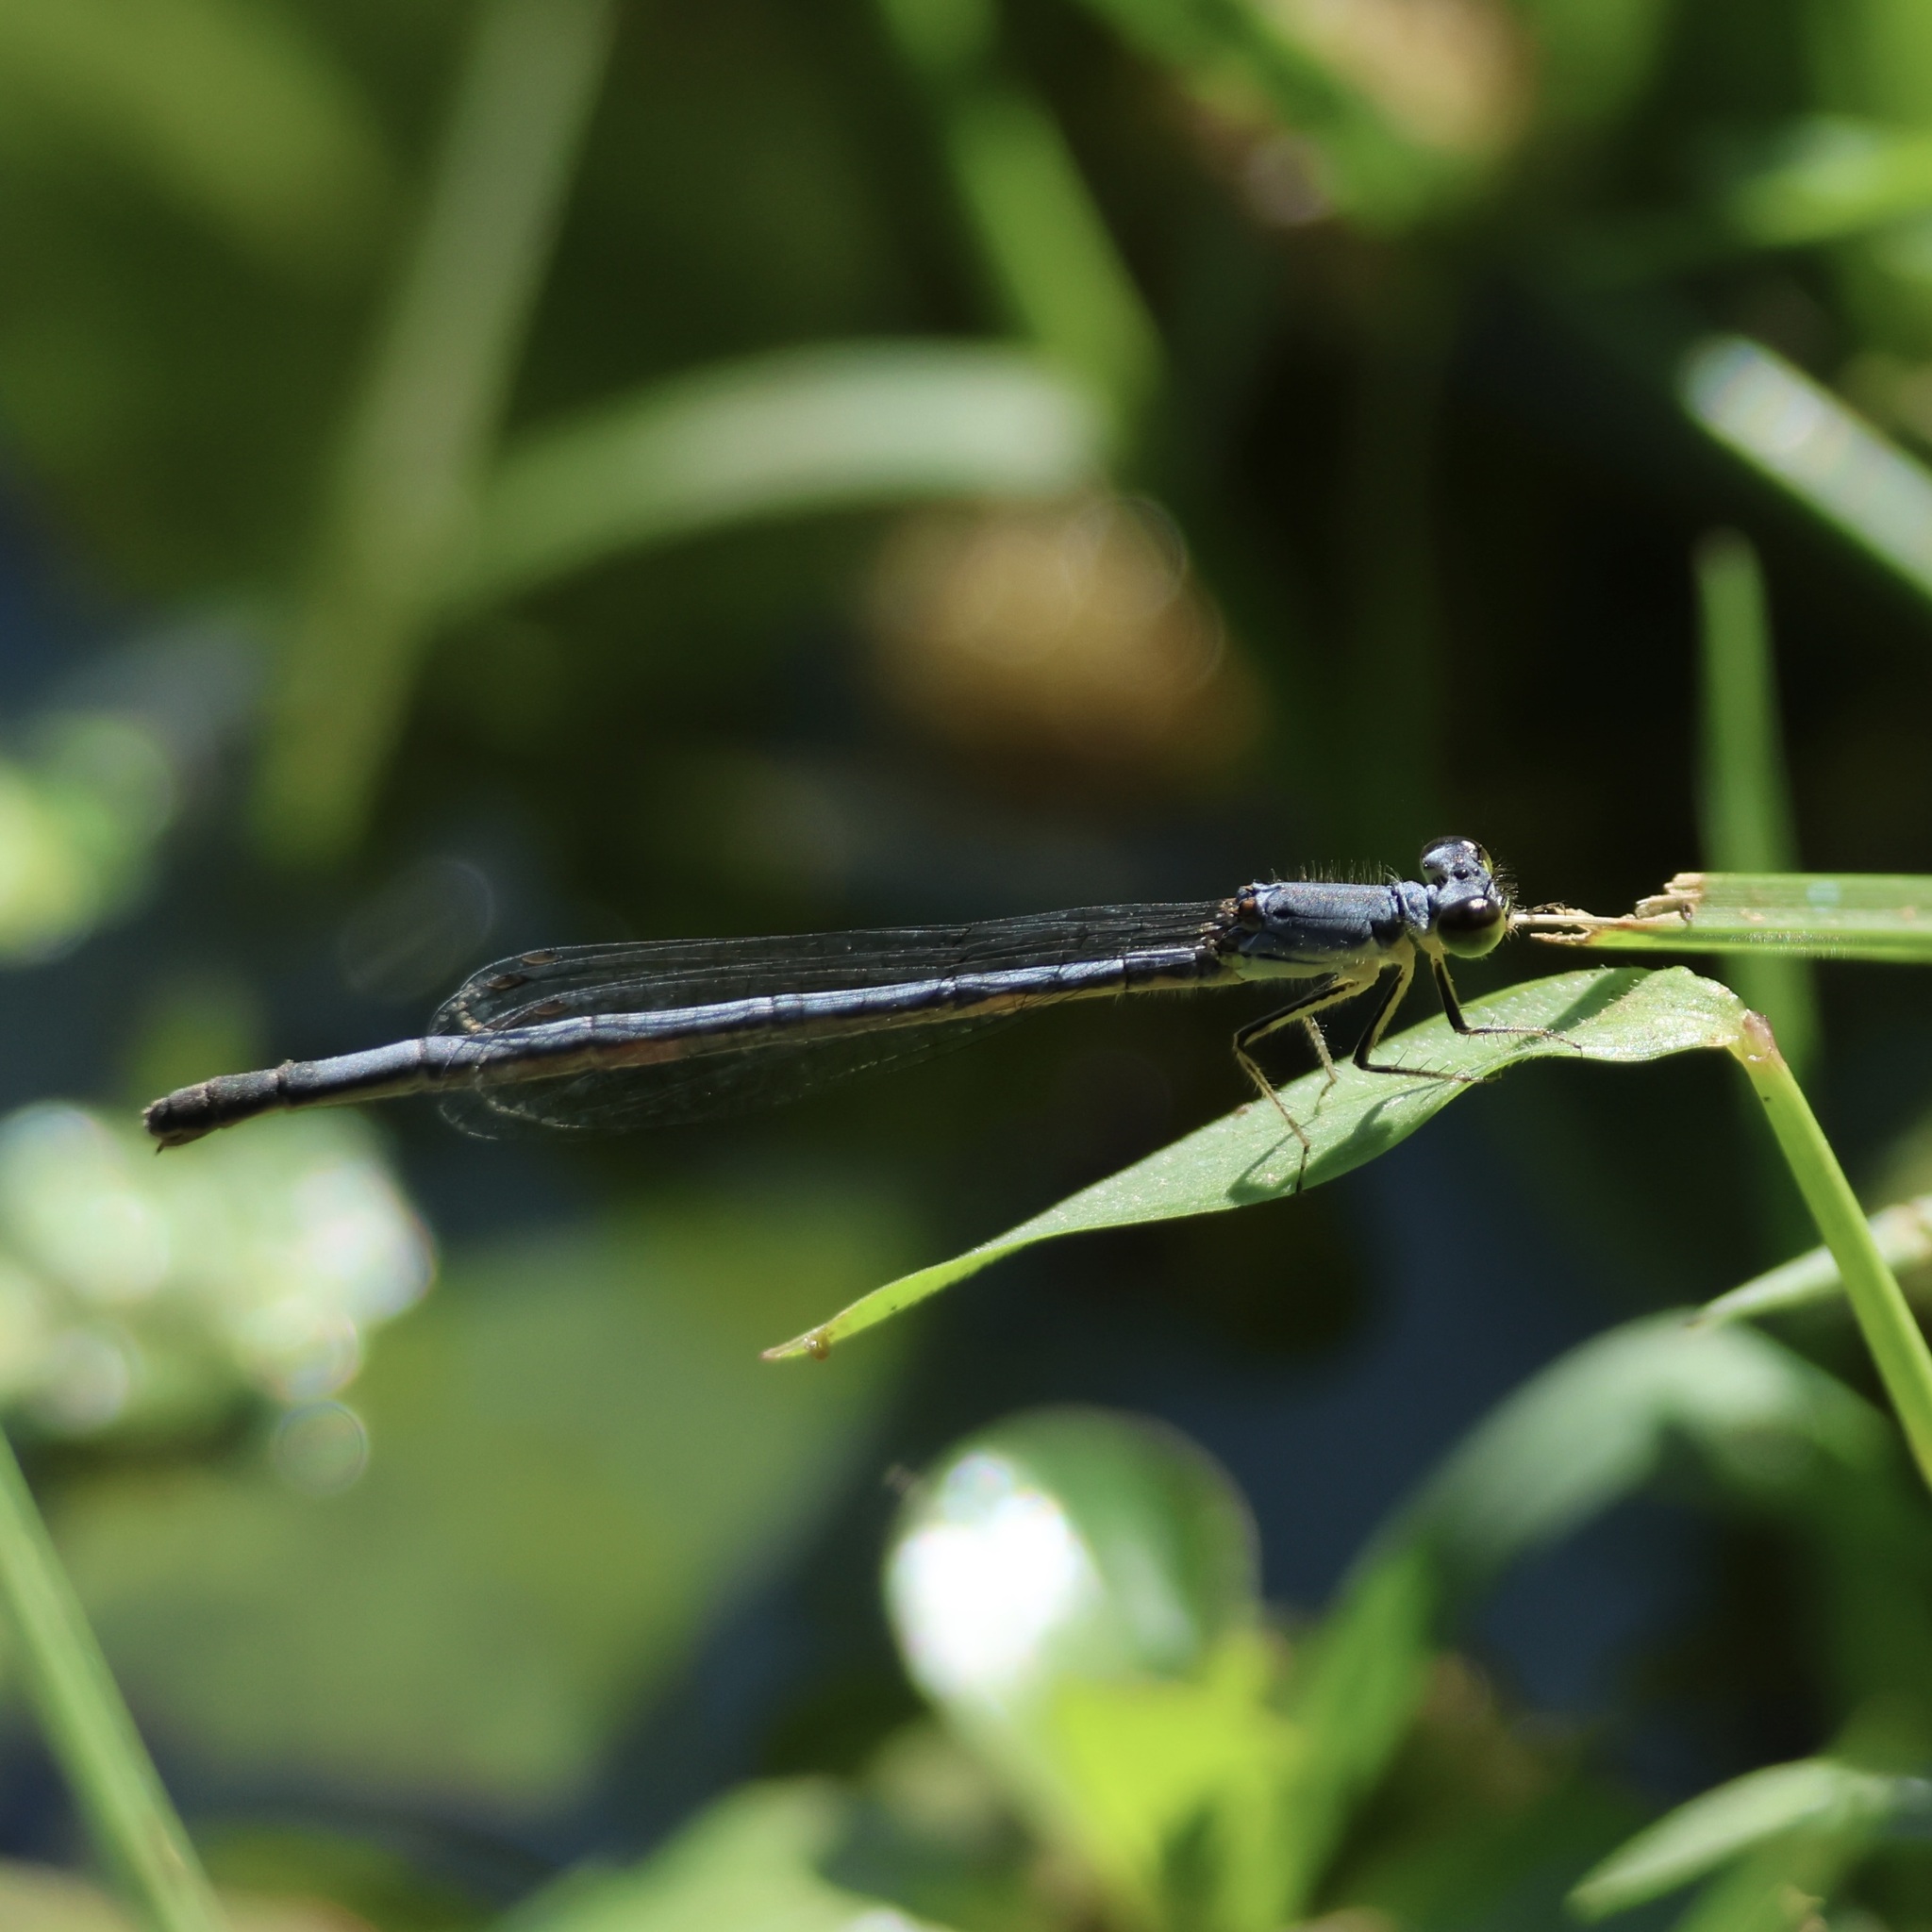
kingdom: Animalia
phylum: Arthropoda
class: Insecta
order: Odonata
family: Coenagrionidae
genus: Ischnura
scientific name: Ischnura posita
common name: Fragile forktail
